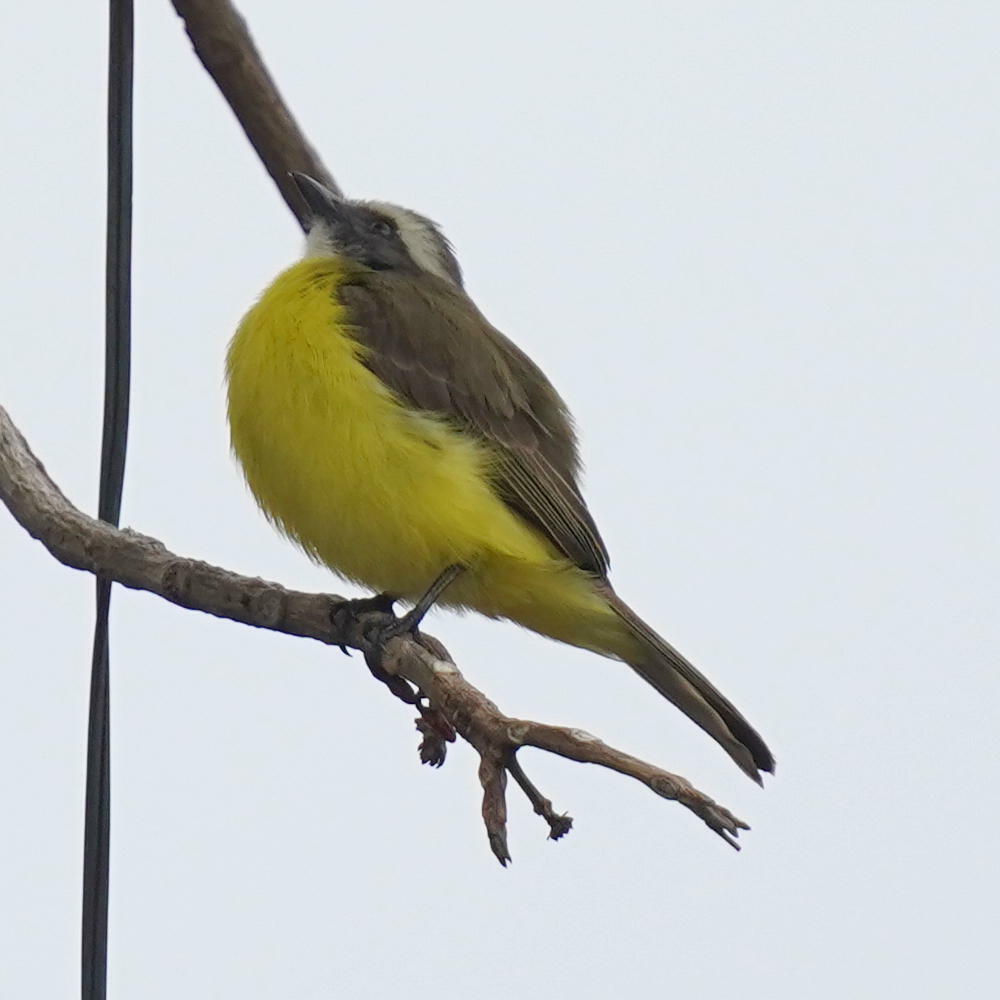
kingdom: Animalia
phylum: Chordata
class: Aves
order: Passeriformes
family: Tyrannidae
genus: Myiozetetes
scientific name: Myiozetetes similis
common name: Social flycatcher
